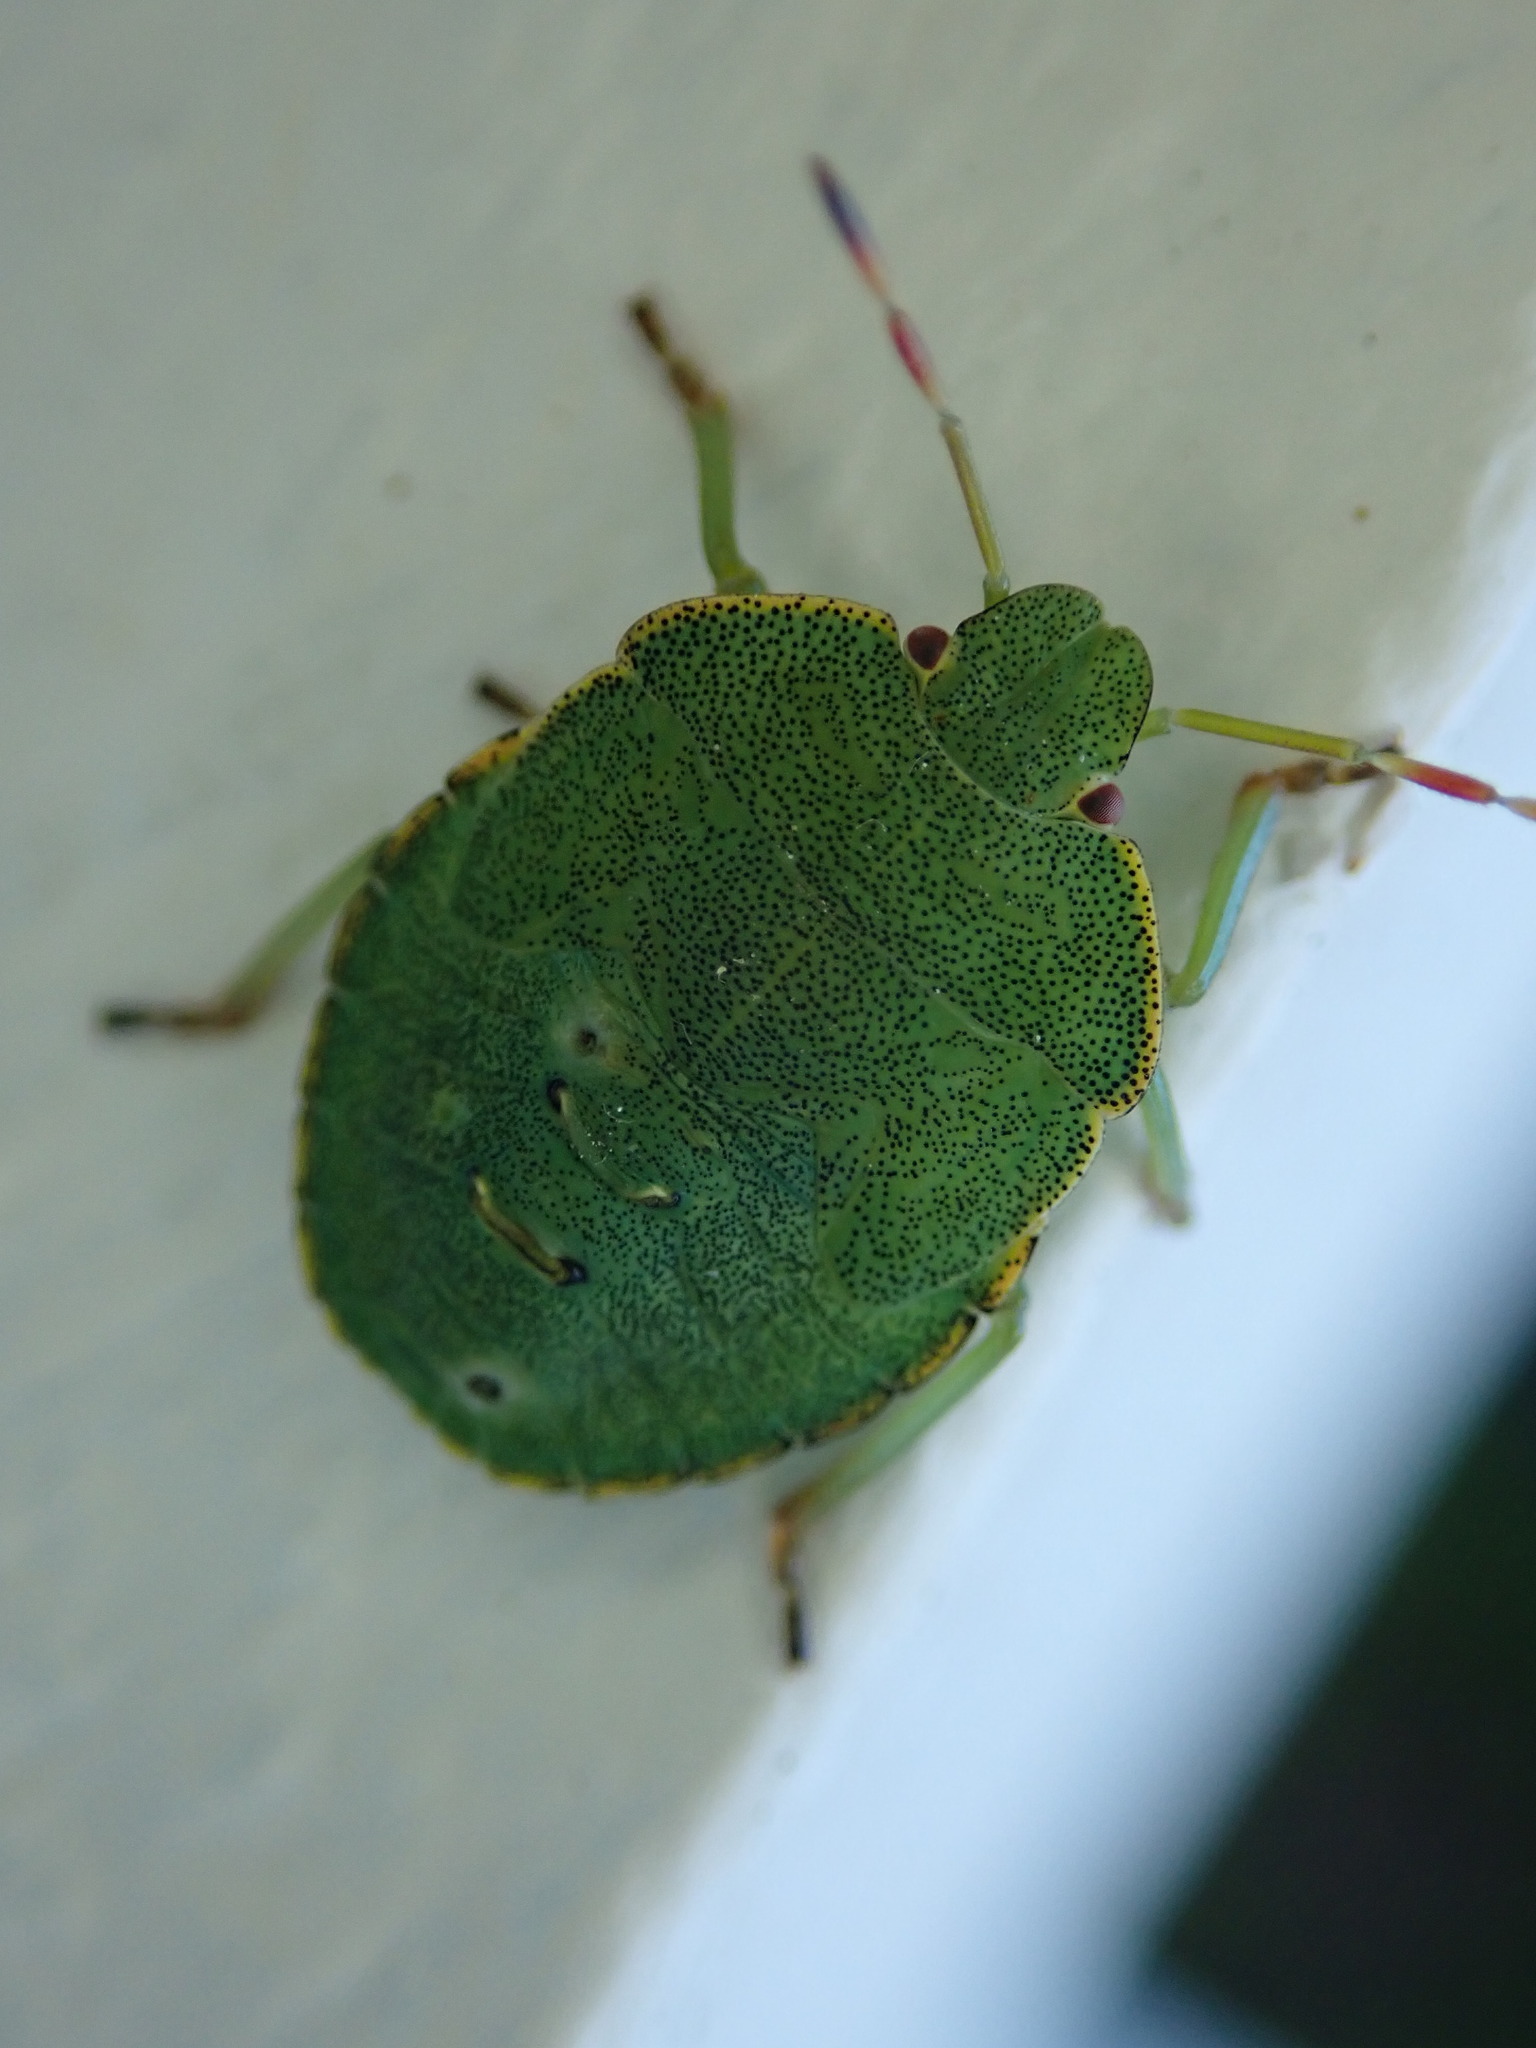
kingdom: Animalia
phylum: Arthropoda
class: Insecta
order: Hemiptera
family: Pentatomidae
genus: Palomena
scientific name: Palomena prasina
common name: Green shieldbug
